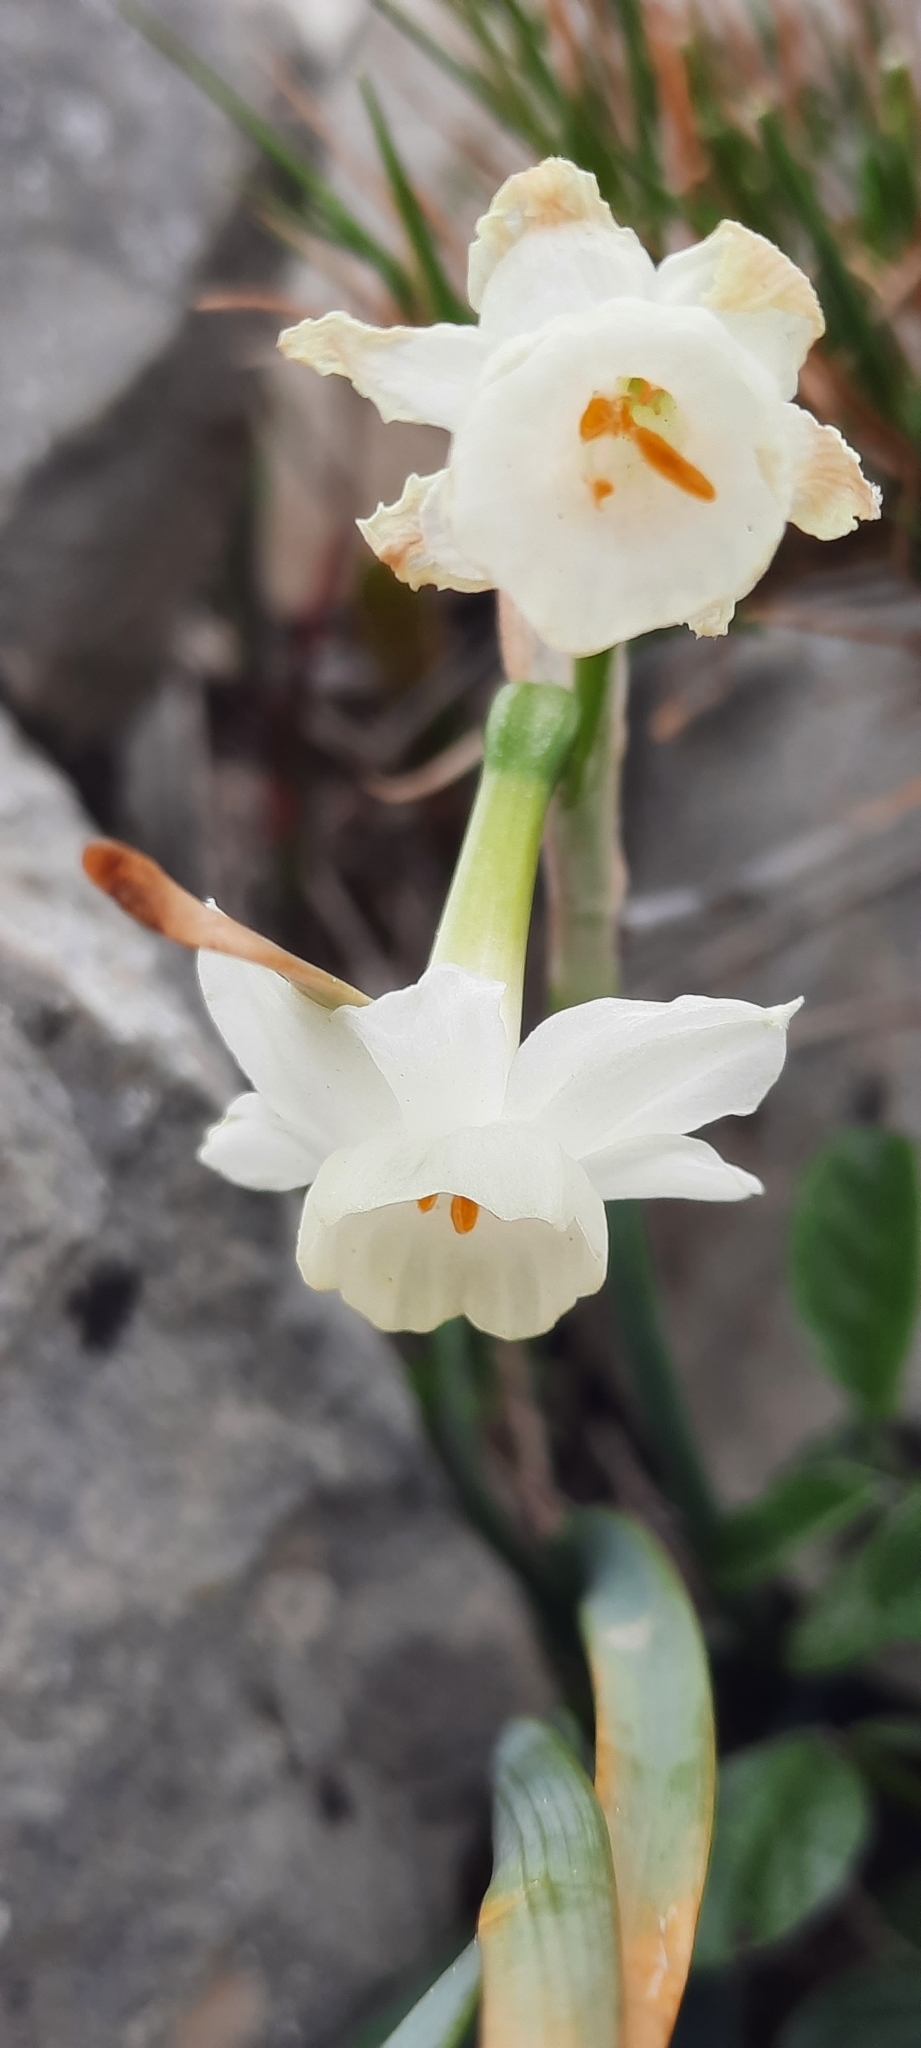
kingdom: Plantae
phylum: Tracheophyta
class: Liliopsida
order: Asparagales
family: Amaryllidaceae
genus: Narcissus
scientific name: Narcissus dubius
